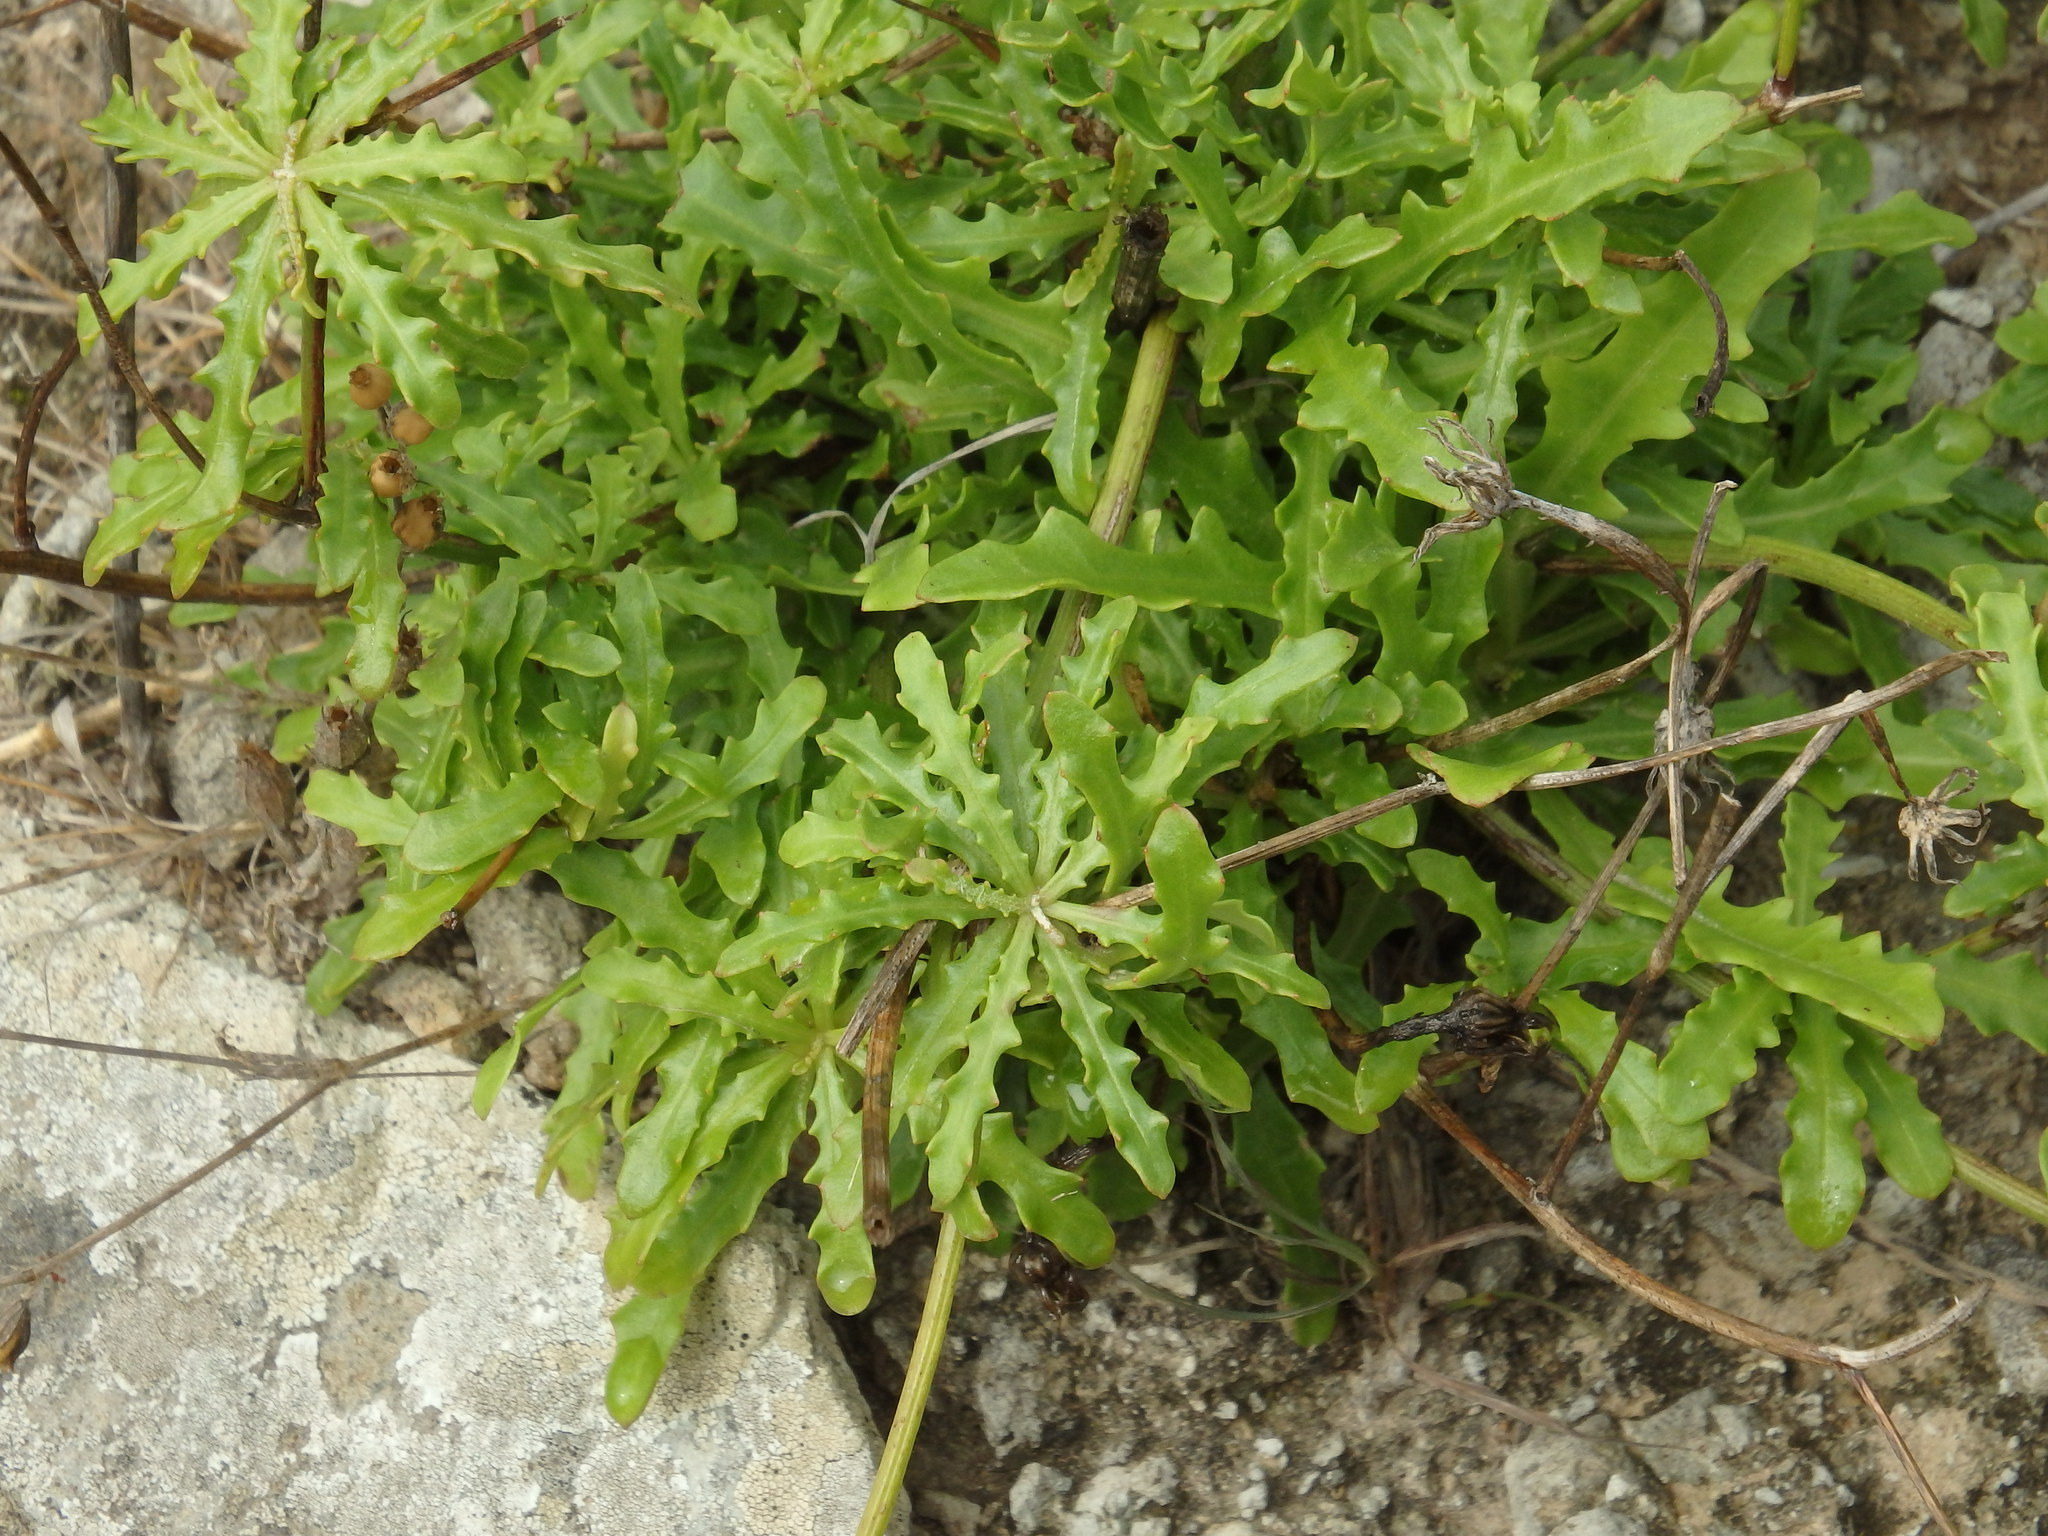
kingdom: Plantae
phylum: Tracheophyta
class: Magnoliopsida
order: Asterales
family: Asteraceae
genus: Tolpis
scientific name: Tolpis succulenta
